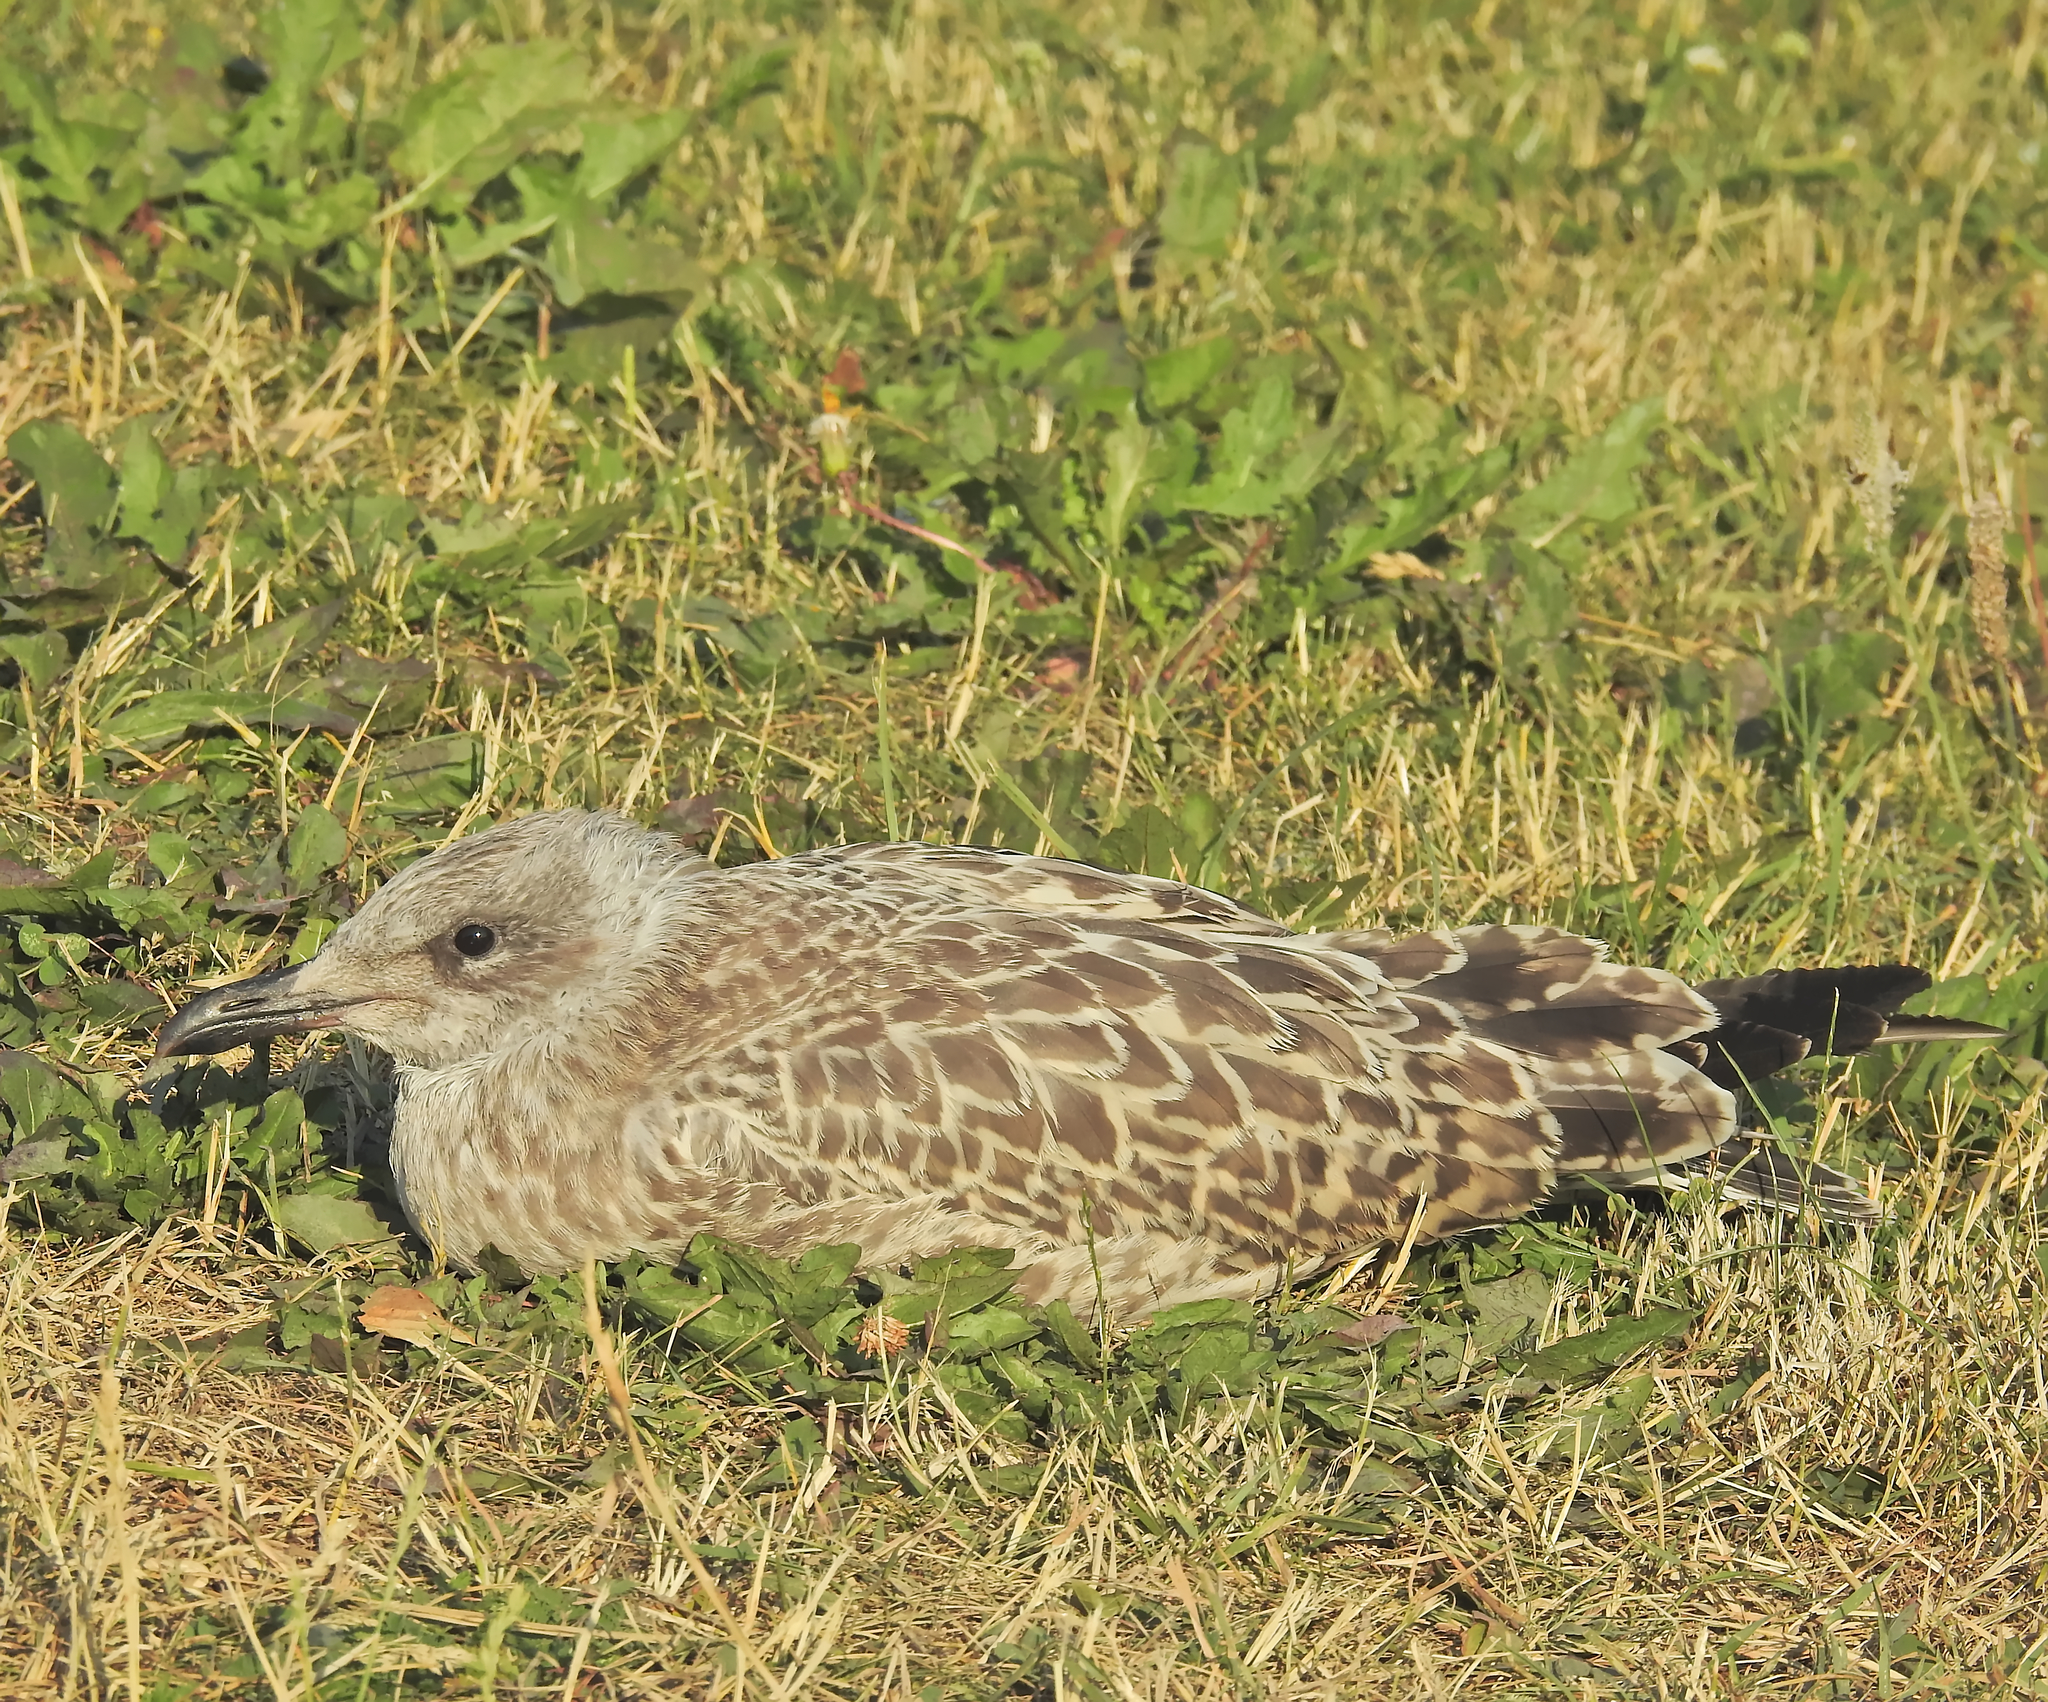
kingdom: Animalia
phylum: Chordata
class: Aves
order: Charadriiformes
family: Laridae
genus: Larus
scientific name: Larus argentatus
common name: Herring gull
